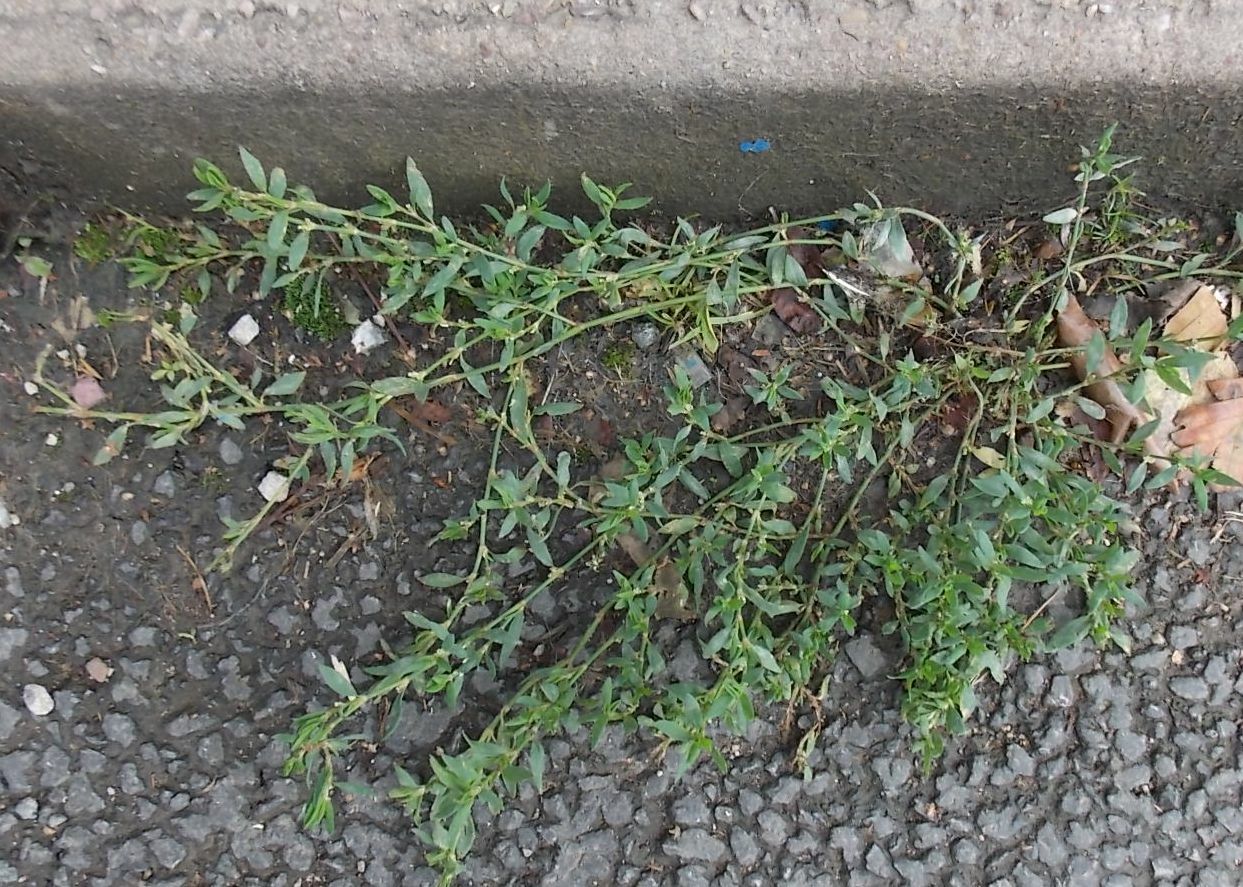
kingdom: Plantae
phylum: Tracheophyta
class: Magnoliopsida
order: Caryophyllales
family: Polygonaceae
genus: Polygonum
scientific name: Polygonum aviculare
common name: Prostrate knotweed
